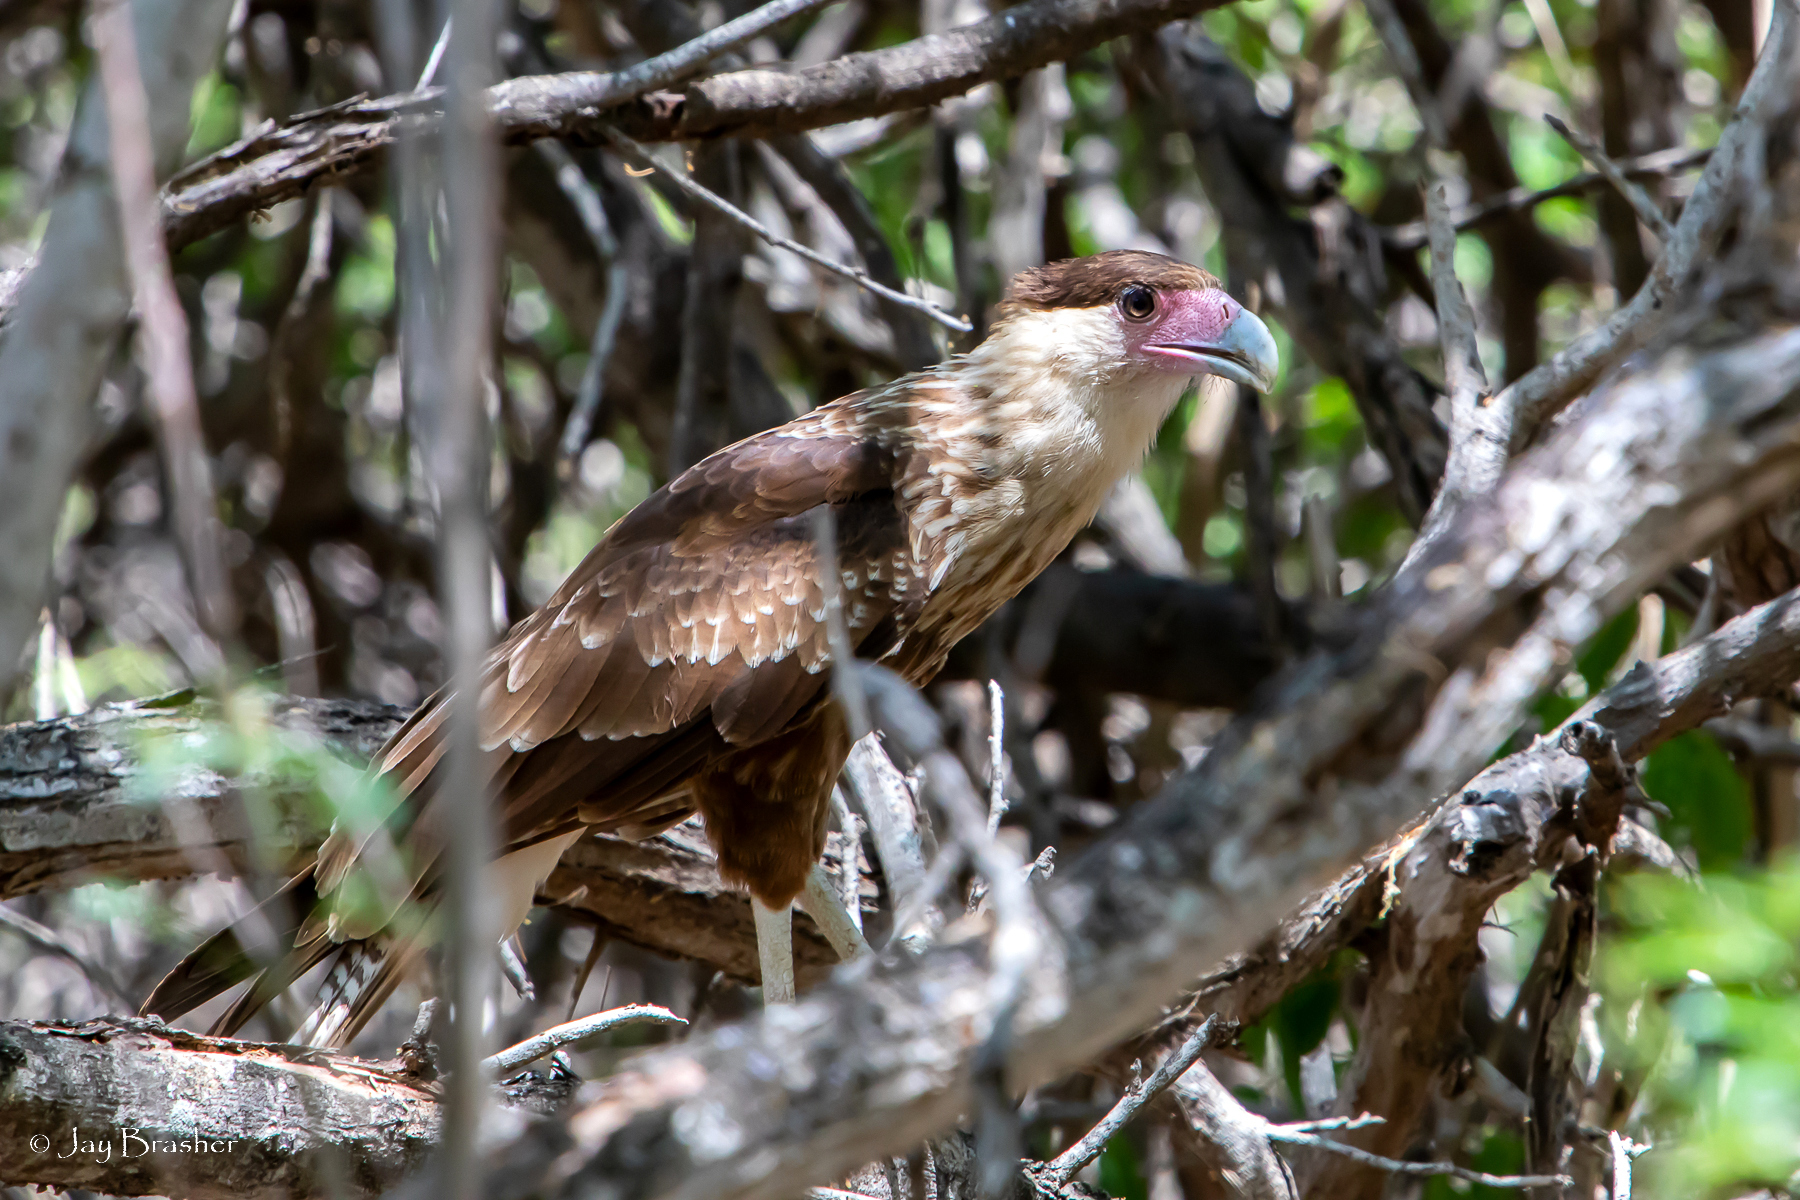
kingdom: Animalia
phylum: Chordata
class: Aves
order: Falconiformes
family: Falconidae
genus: Caracara
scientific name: Caracara plancus
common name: Southern caracara
